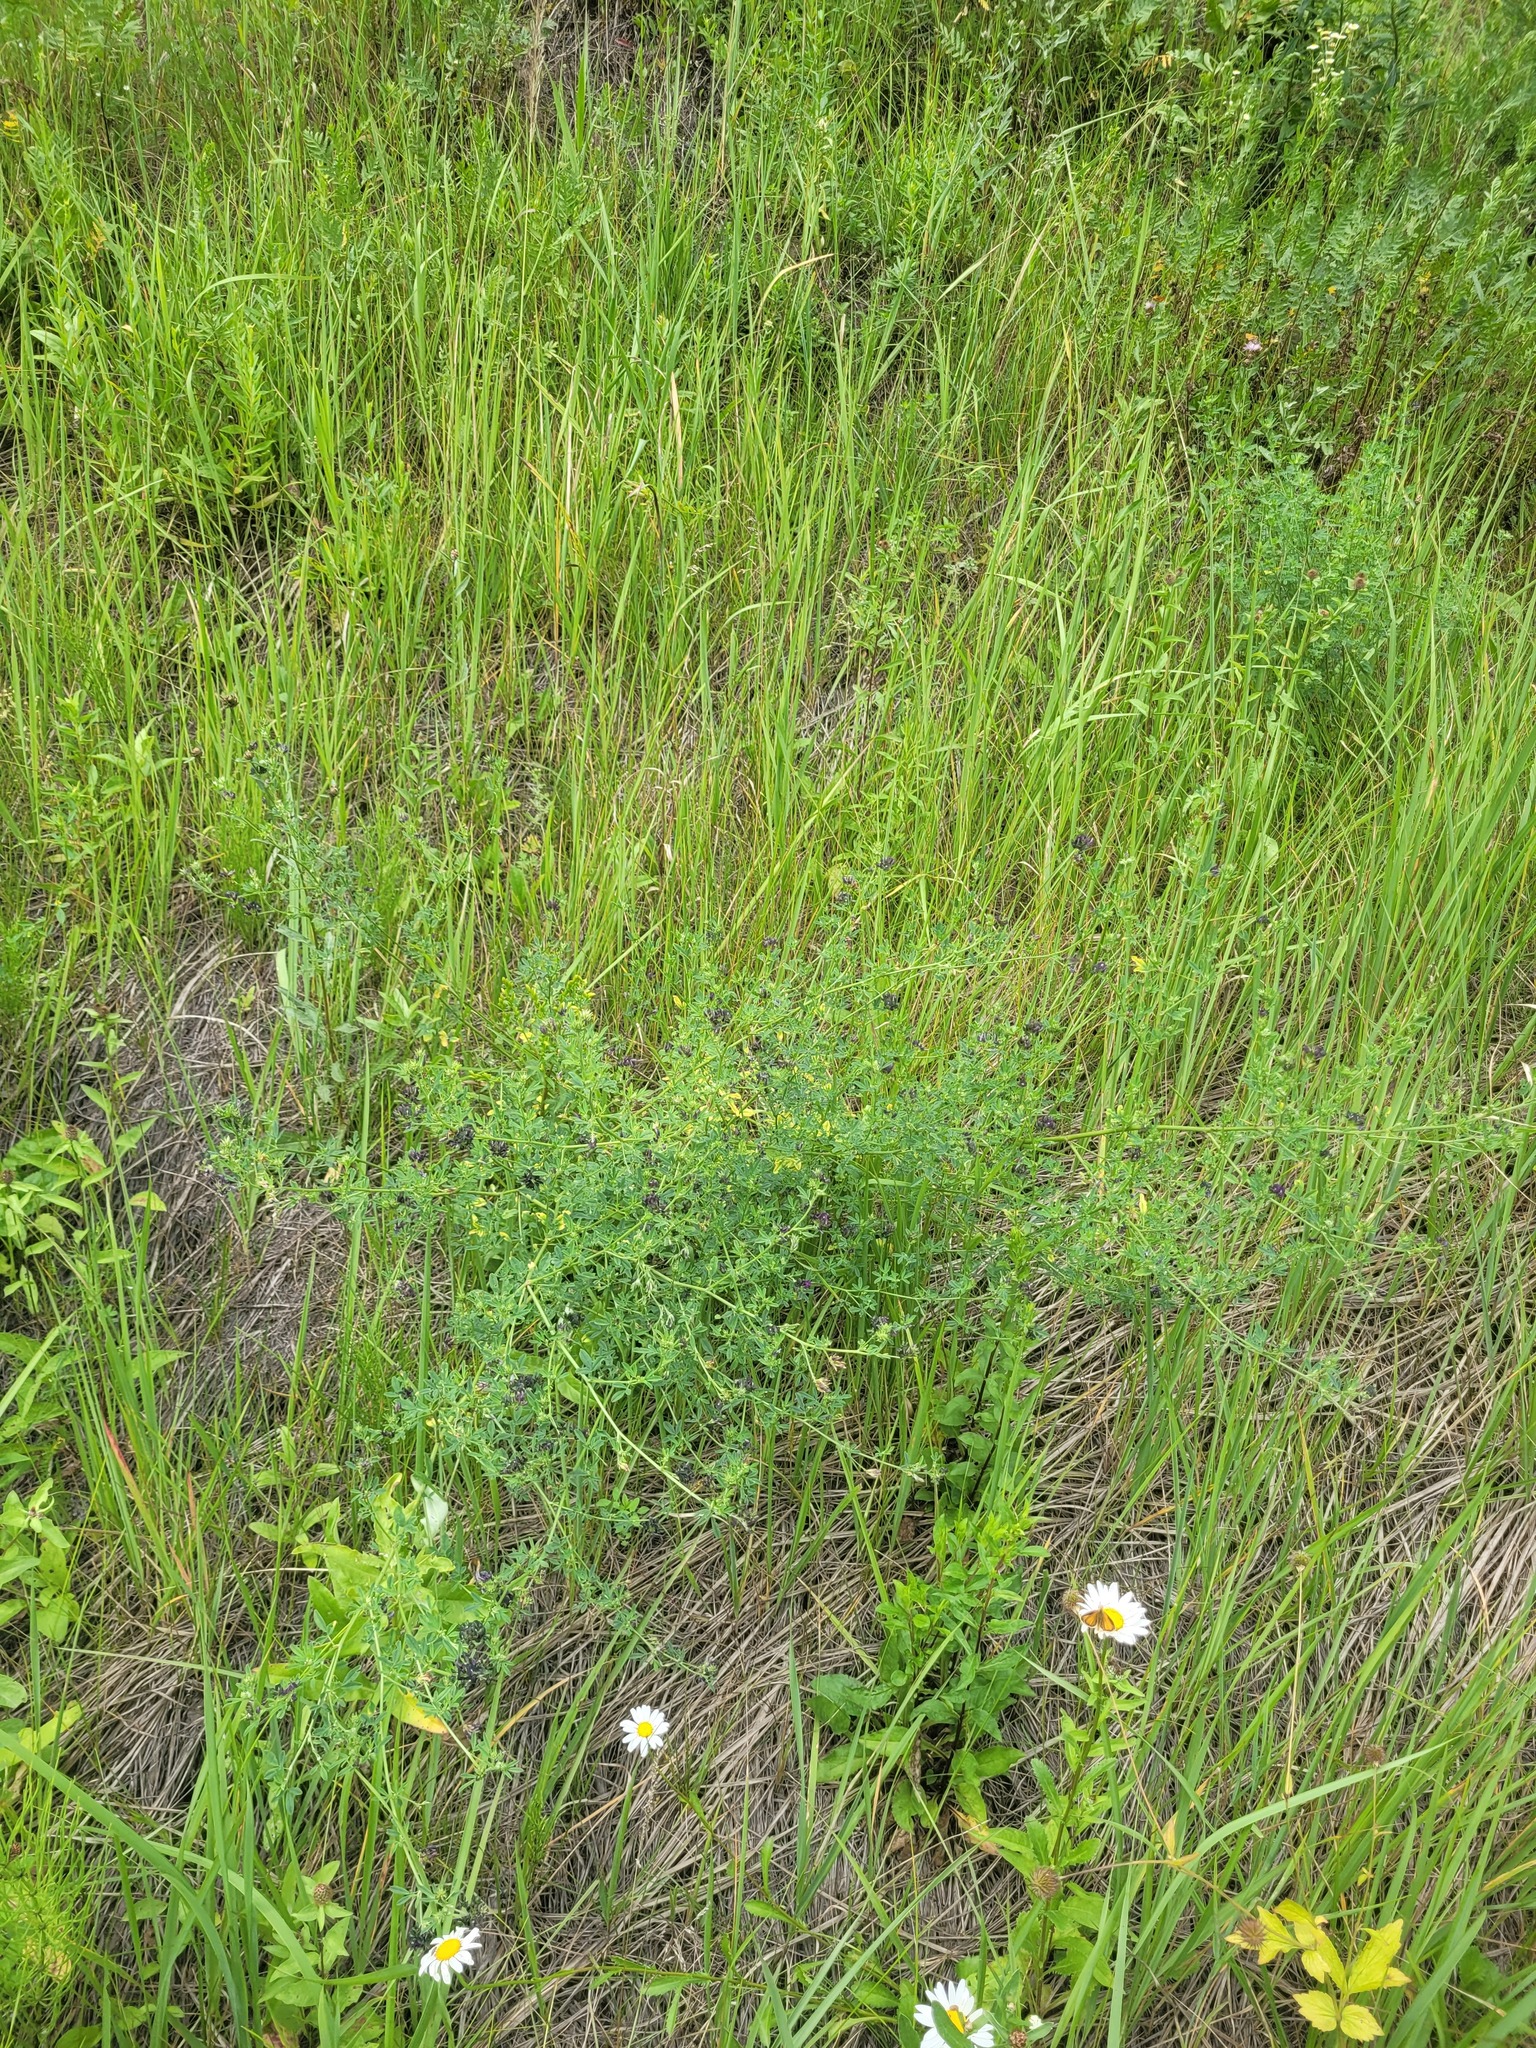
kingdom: Plantae
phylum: Tracheophyta
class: Magnoliopsida
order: Fabales
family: Fabaceae
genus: Medicago
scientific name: Medicago varia
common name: Sand lucerne
